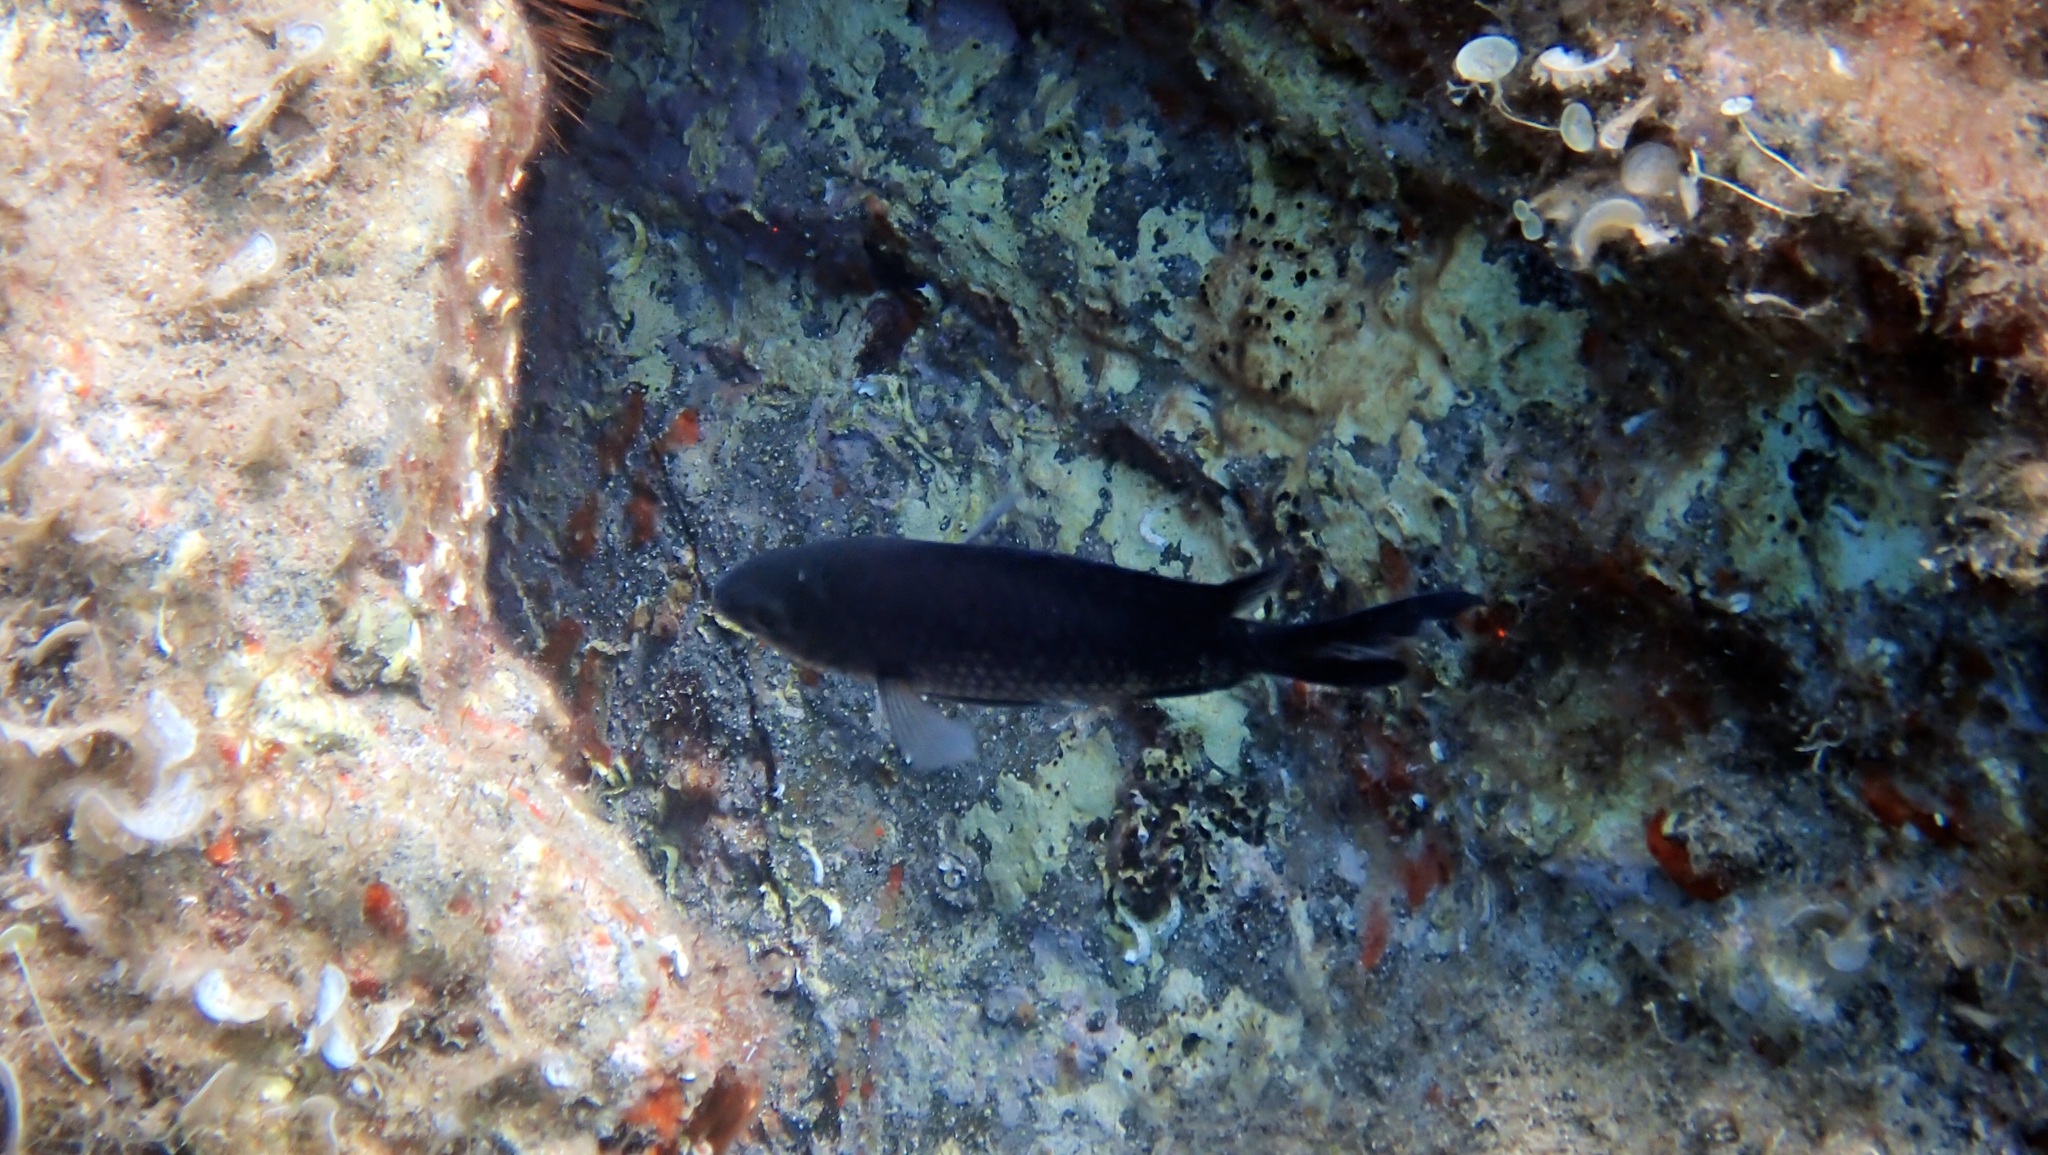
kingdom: Animalia
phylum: Chordata
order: Perciformes
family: Pomacentridae
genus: Chromis
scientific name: Chromis chromis
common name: Damselfish
